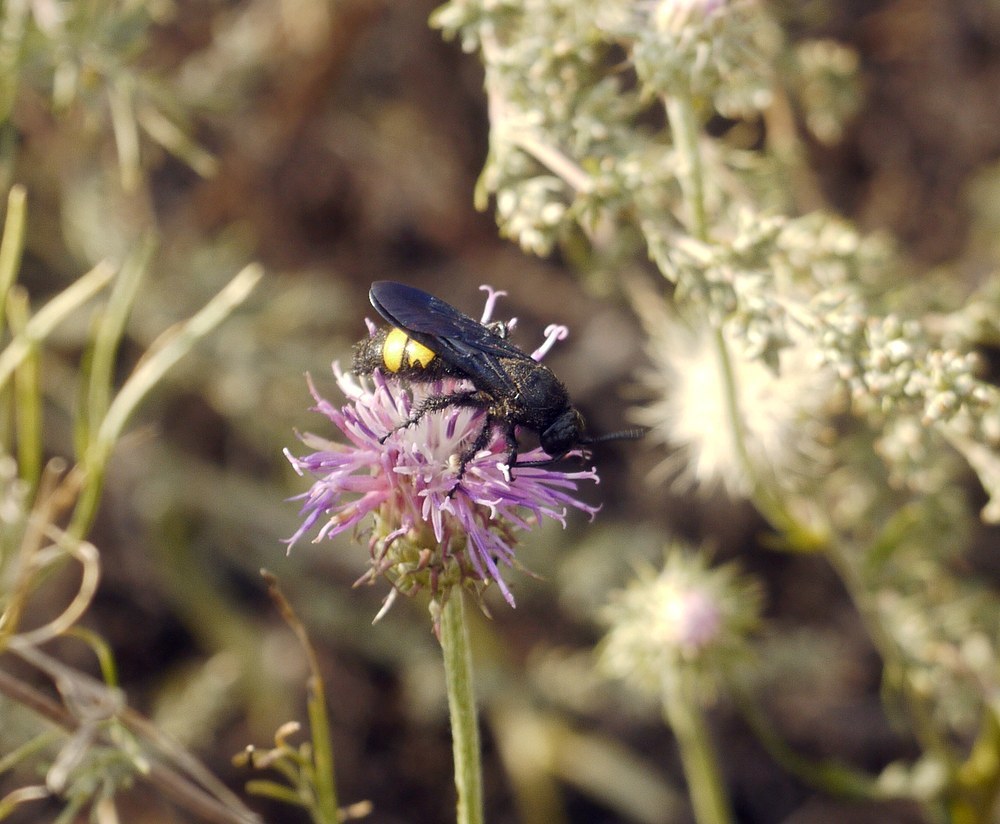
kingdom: Animalia
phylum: Arthropoda
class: Insecta
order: Hymenoptera
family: Scoliidae
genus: Scolia
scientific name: Scolia hirta
